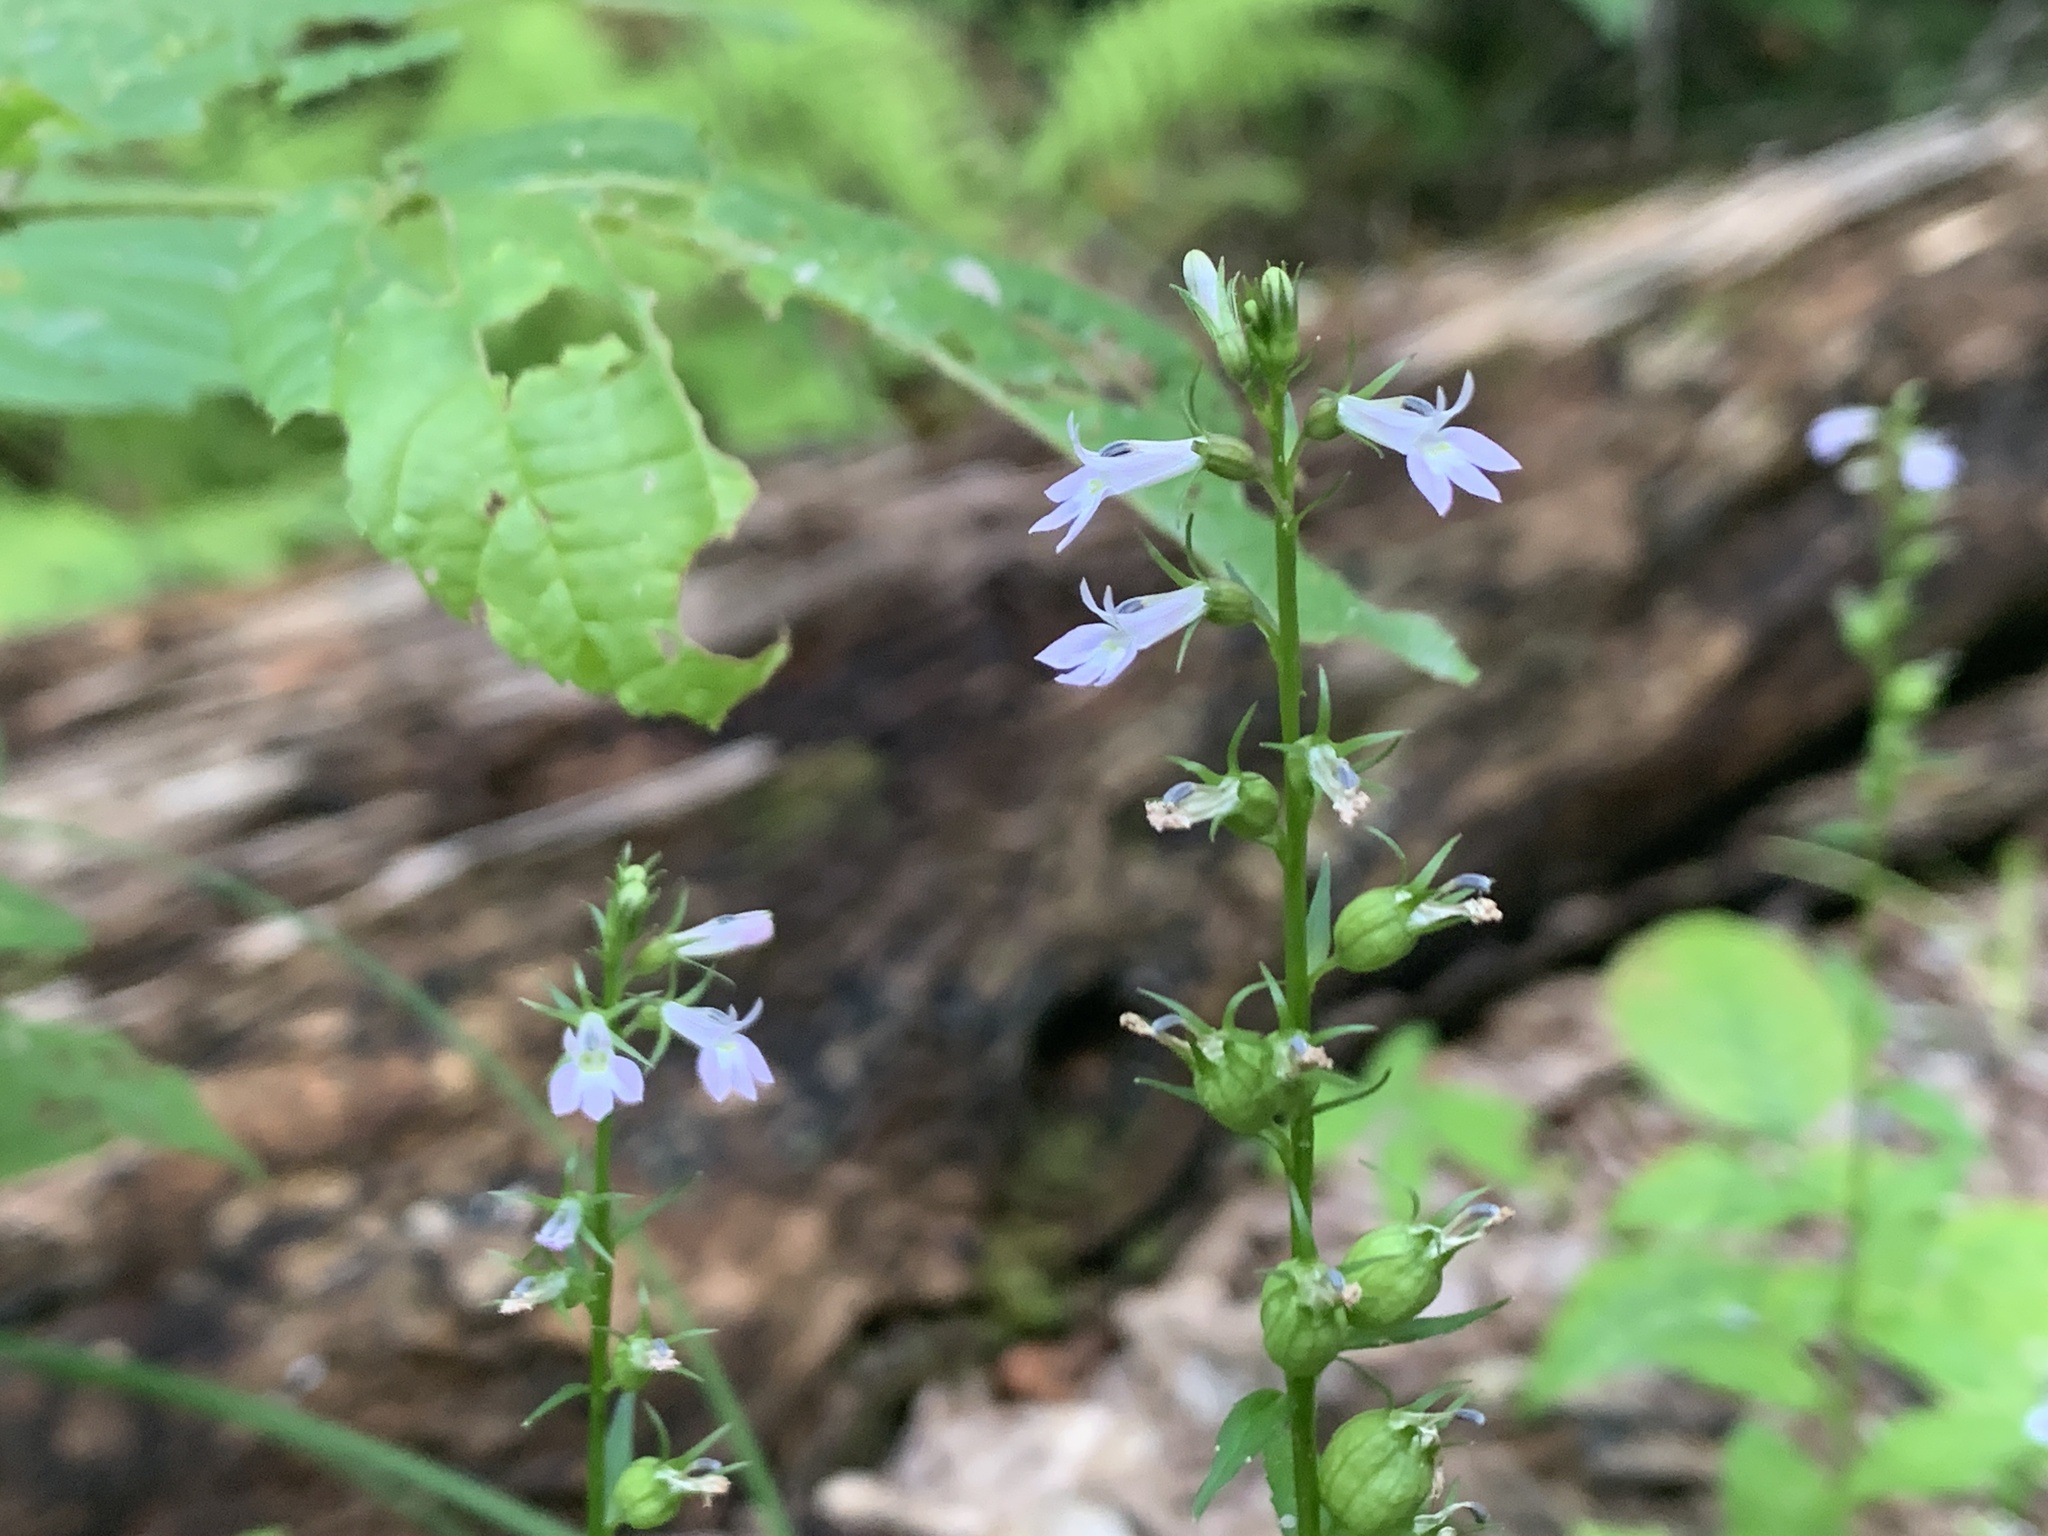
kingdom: Plantae
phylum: Tracheophyta
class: Magnoliopsida
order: Asterales
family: Campanulaceae
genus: Lobelia
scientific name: Lobelia inflata
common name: Indian tobacco
